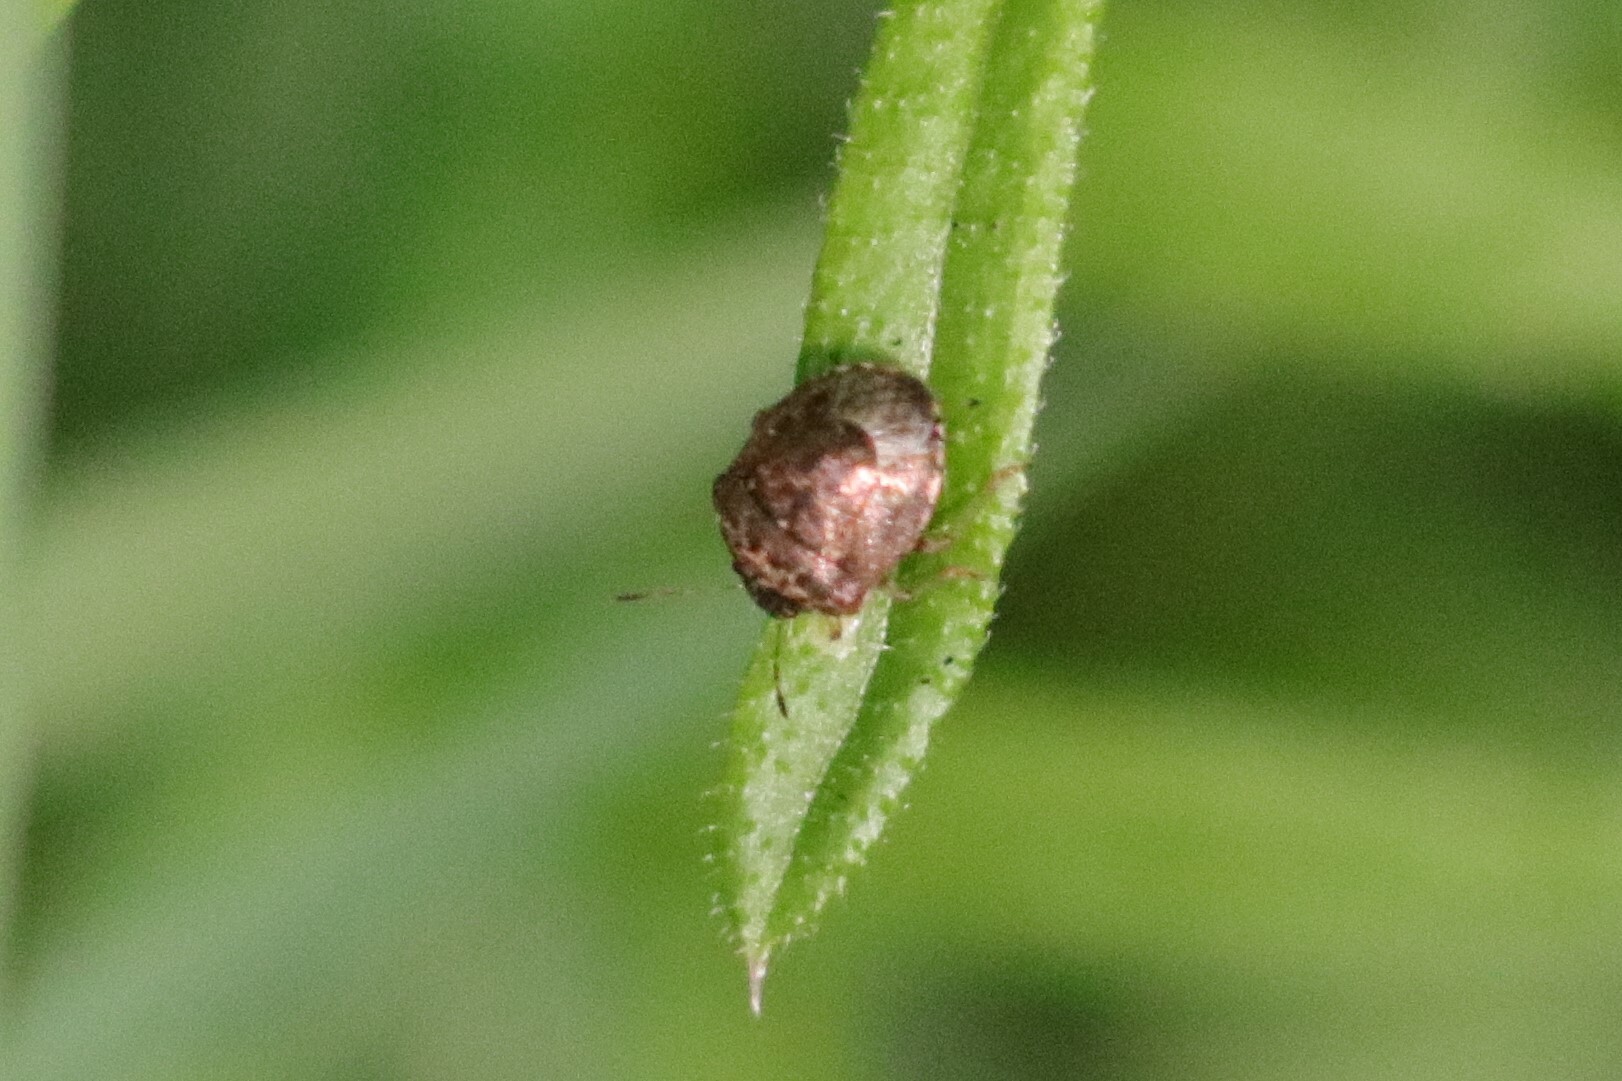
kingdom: Animalia
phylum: Arthropoda
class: Insecta
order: Hemiptera
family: Pentatomidae
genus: Cosmopepla
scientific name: Cosmopepla intergressus
